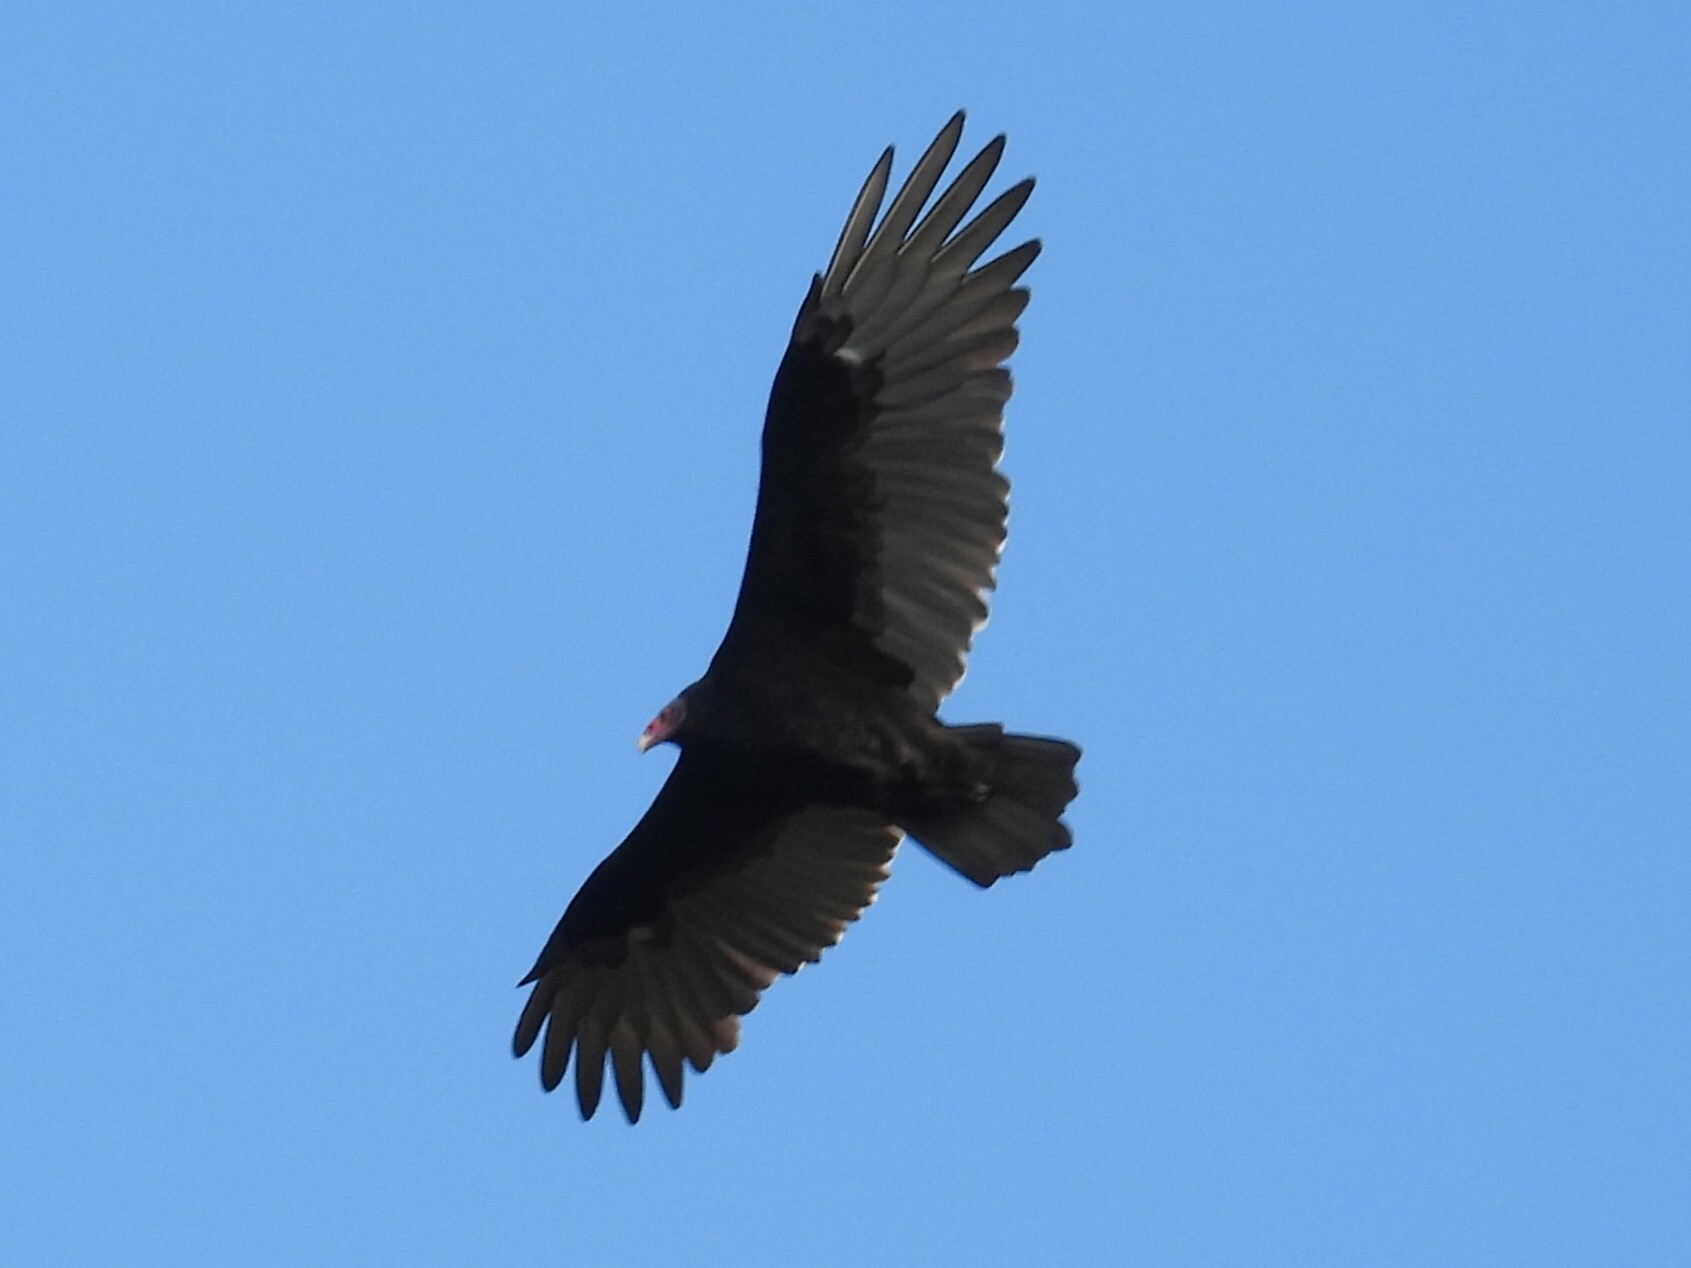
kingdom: Animalia
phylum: Chordata
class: Aves
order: Accipitriformes
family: Cathartidae
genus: Cathartes
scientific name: Cathartes aura
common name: Turkey vulture
